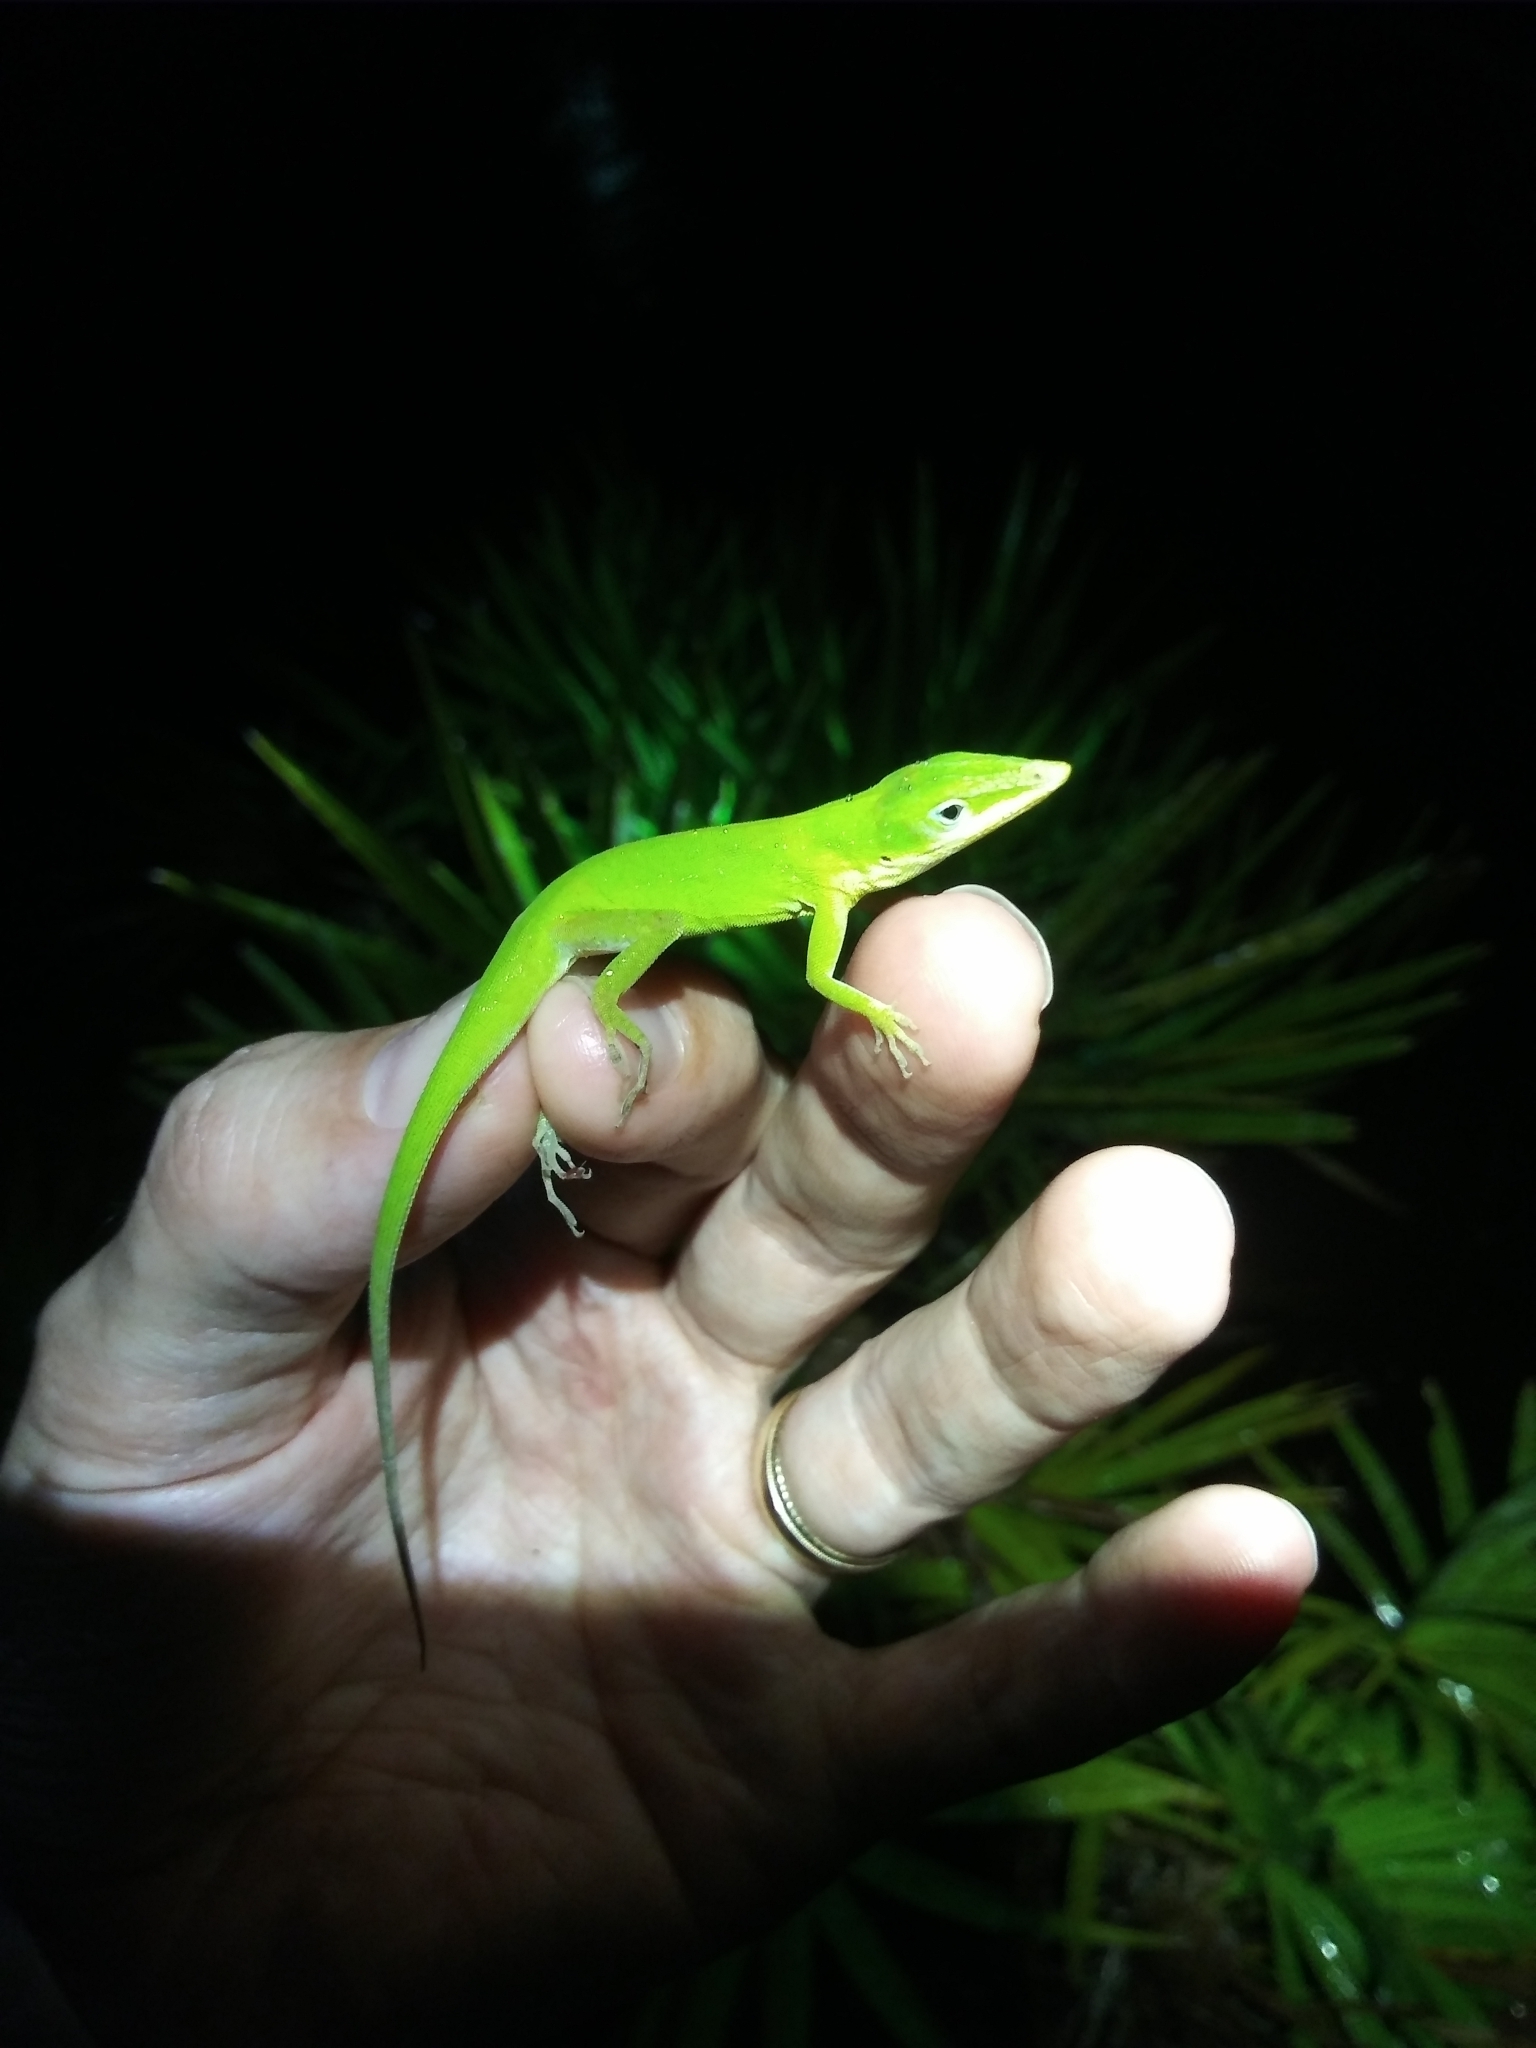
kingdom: Animalia
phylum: Chordata
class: Squamata
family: Dactyloidae
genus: Anolis
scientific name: Anolis carolinensis
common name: Green anole
